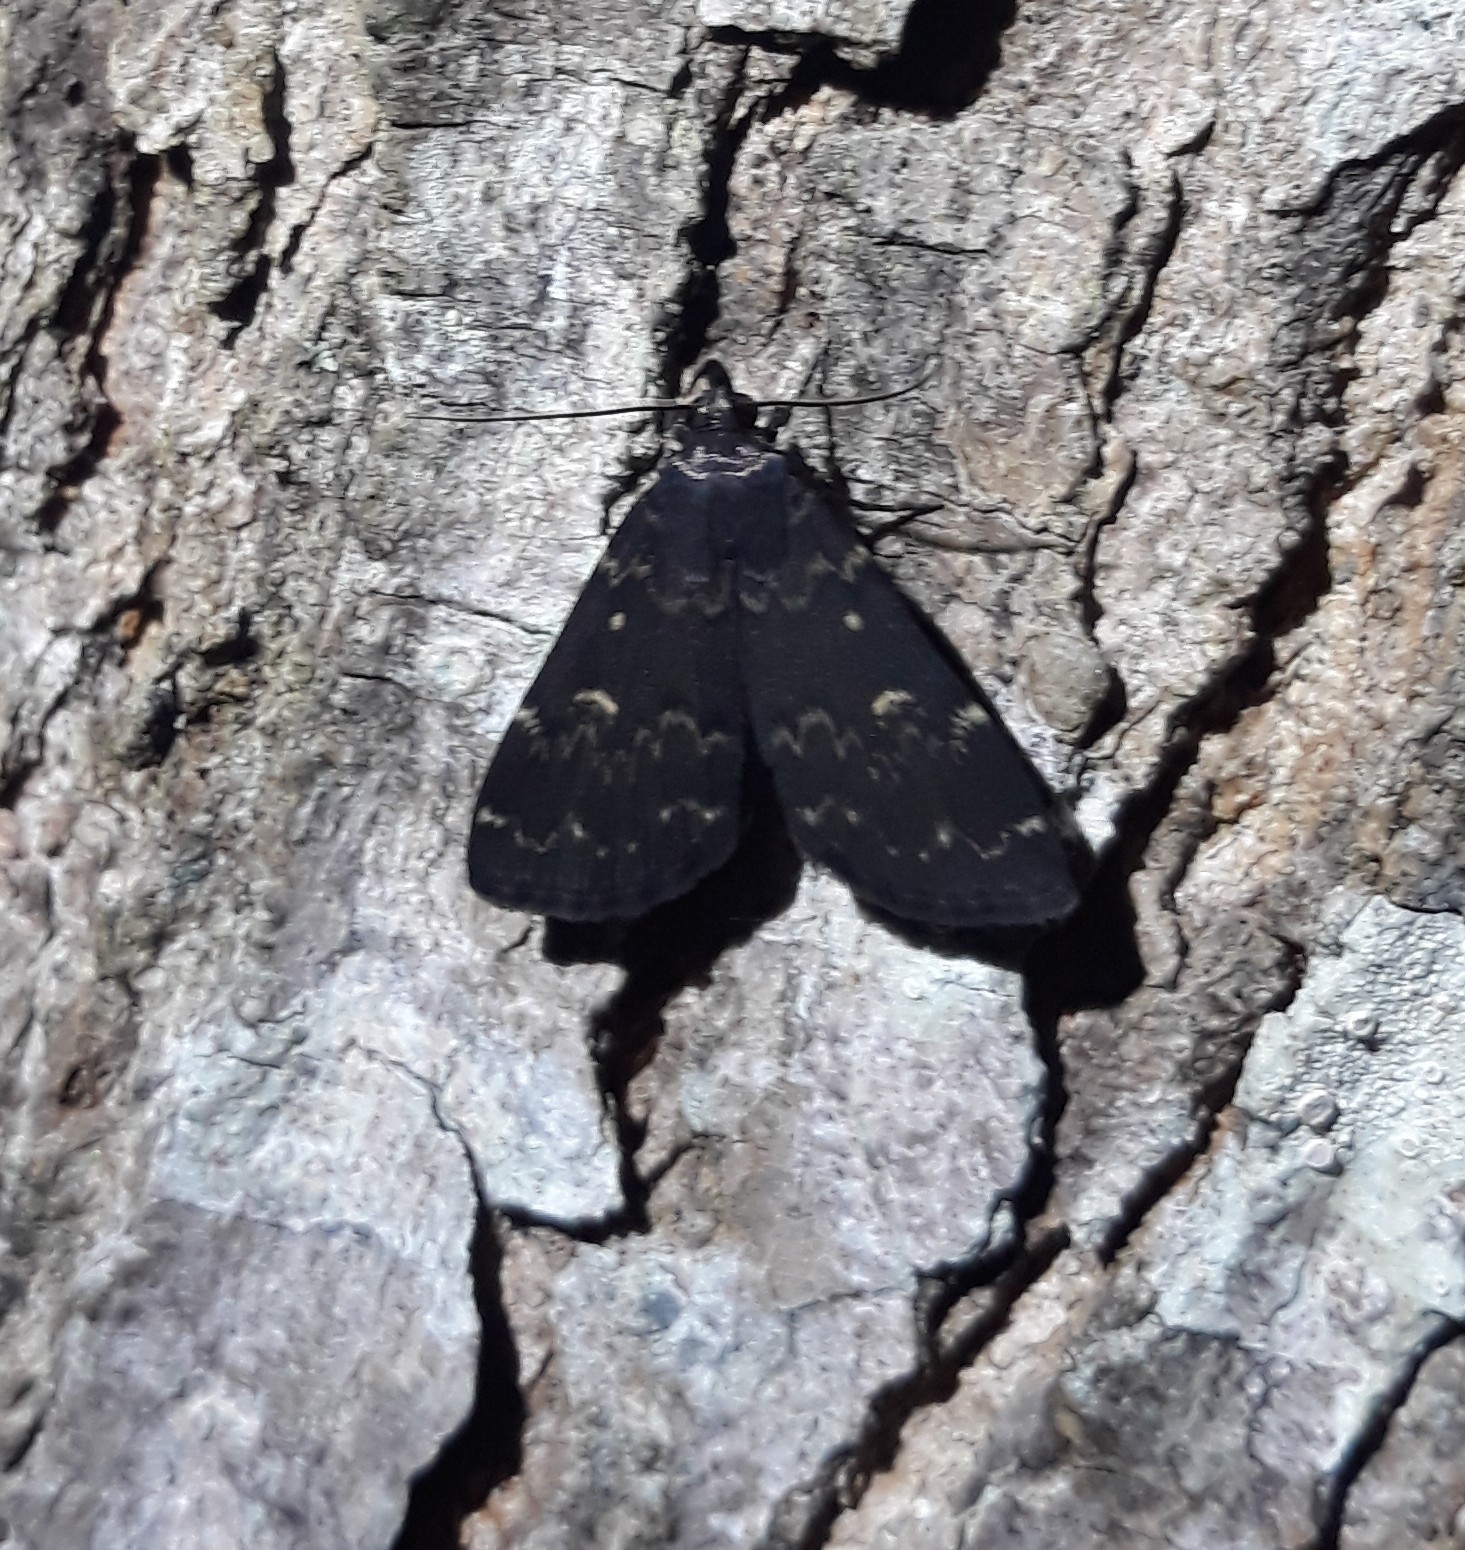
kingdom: Animalia
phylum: Arthropoda
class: Insecta
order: Lepidoptera
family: Erebidae
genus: Idia
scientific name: Idia lubricalis
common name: Twin-striped tabby
